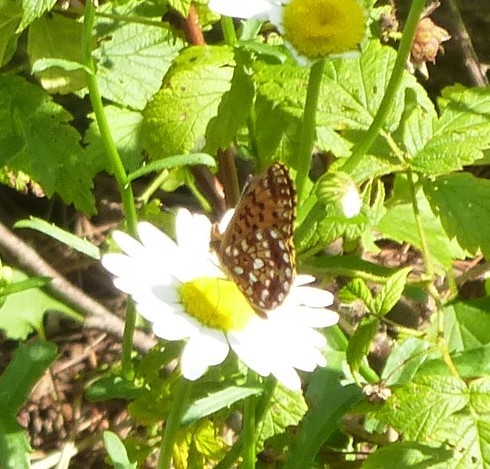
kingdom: Animalia
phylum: Arthropoda
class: Insecta
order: Lepidoptera
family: Nymphalidae
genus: Boloria
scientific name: Boloria
